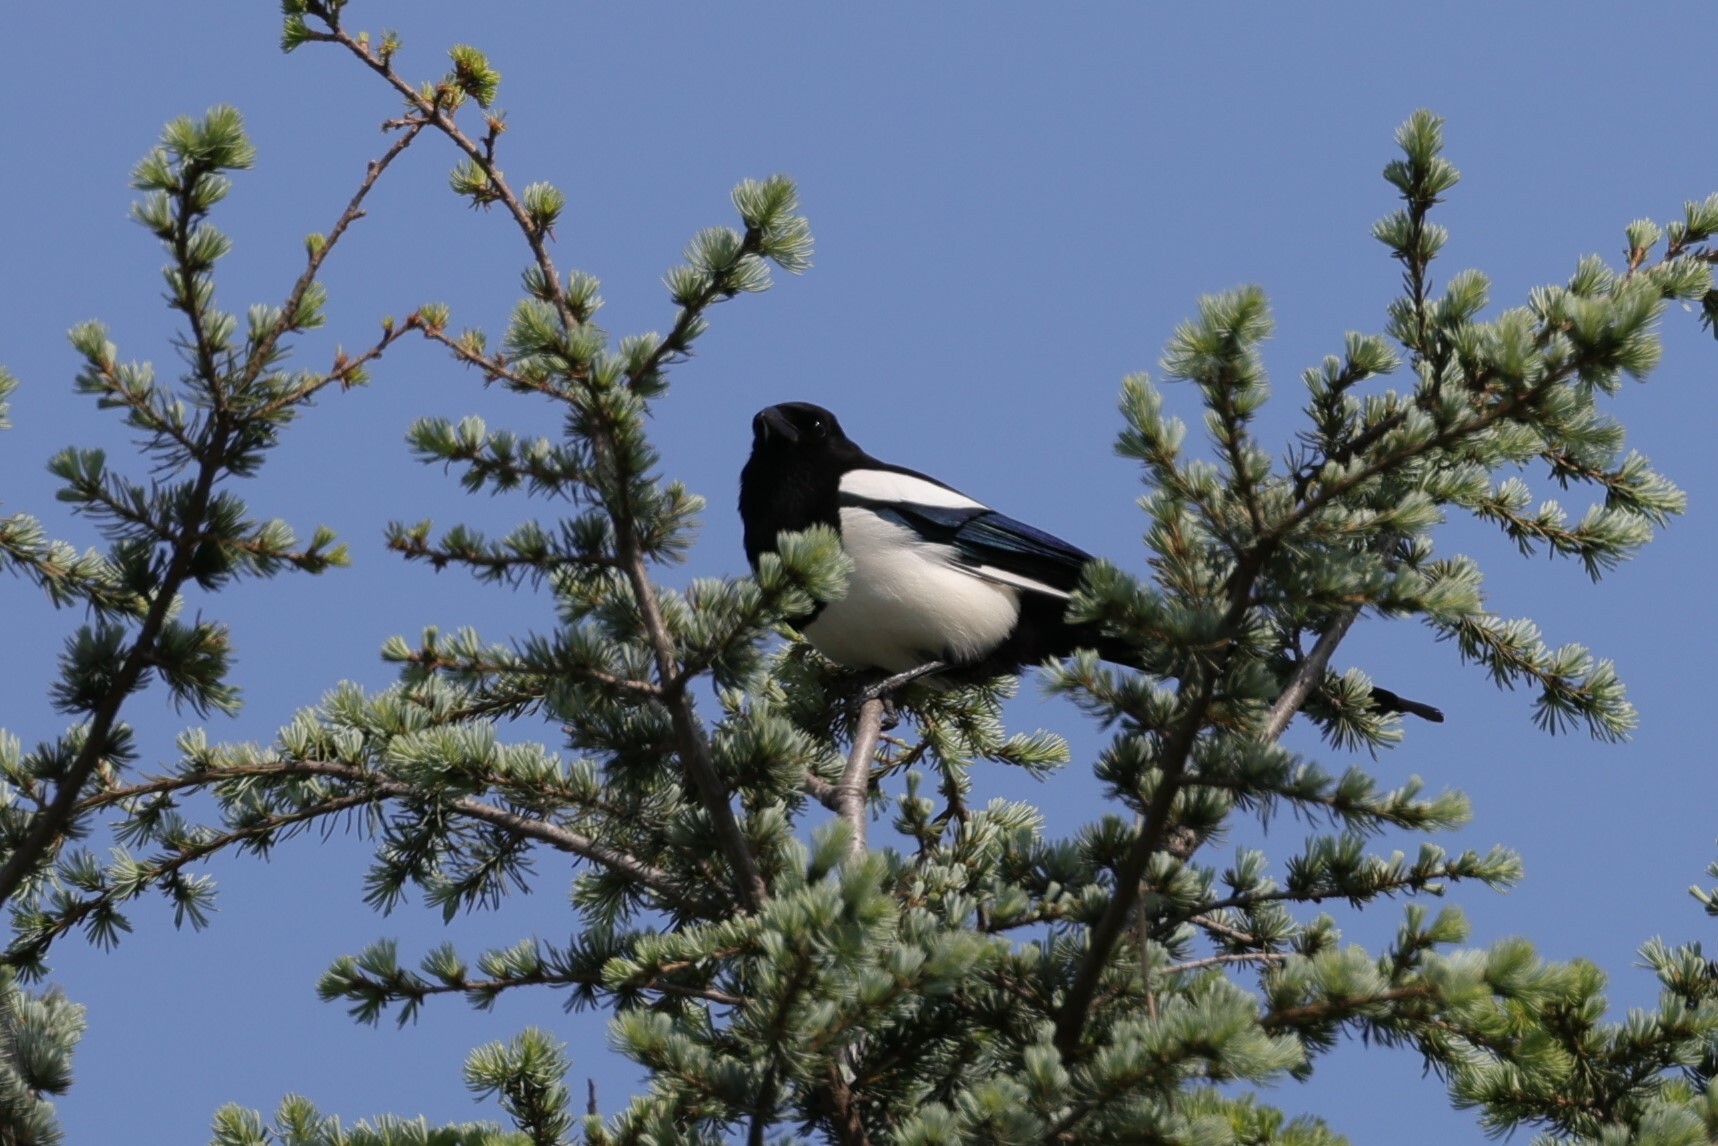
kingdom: Animalia
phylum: Chordata
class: Aves
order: Passeriformes
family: Corvidae
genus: Pica
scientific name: Pica pica
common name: Eurasian magpie
